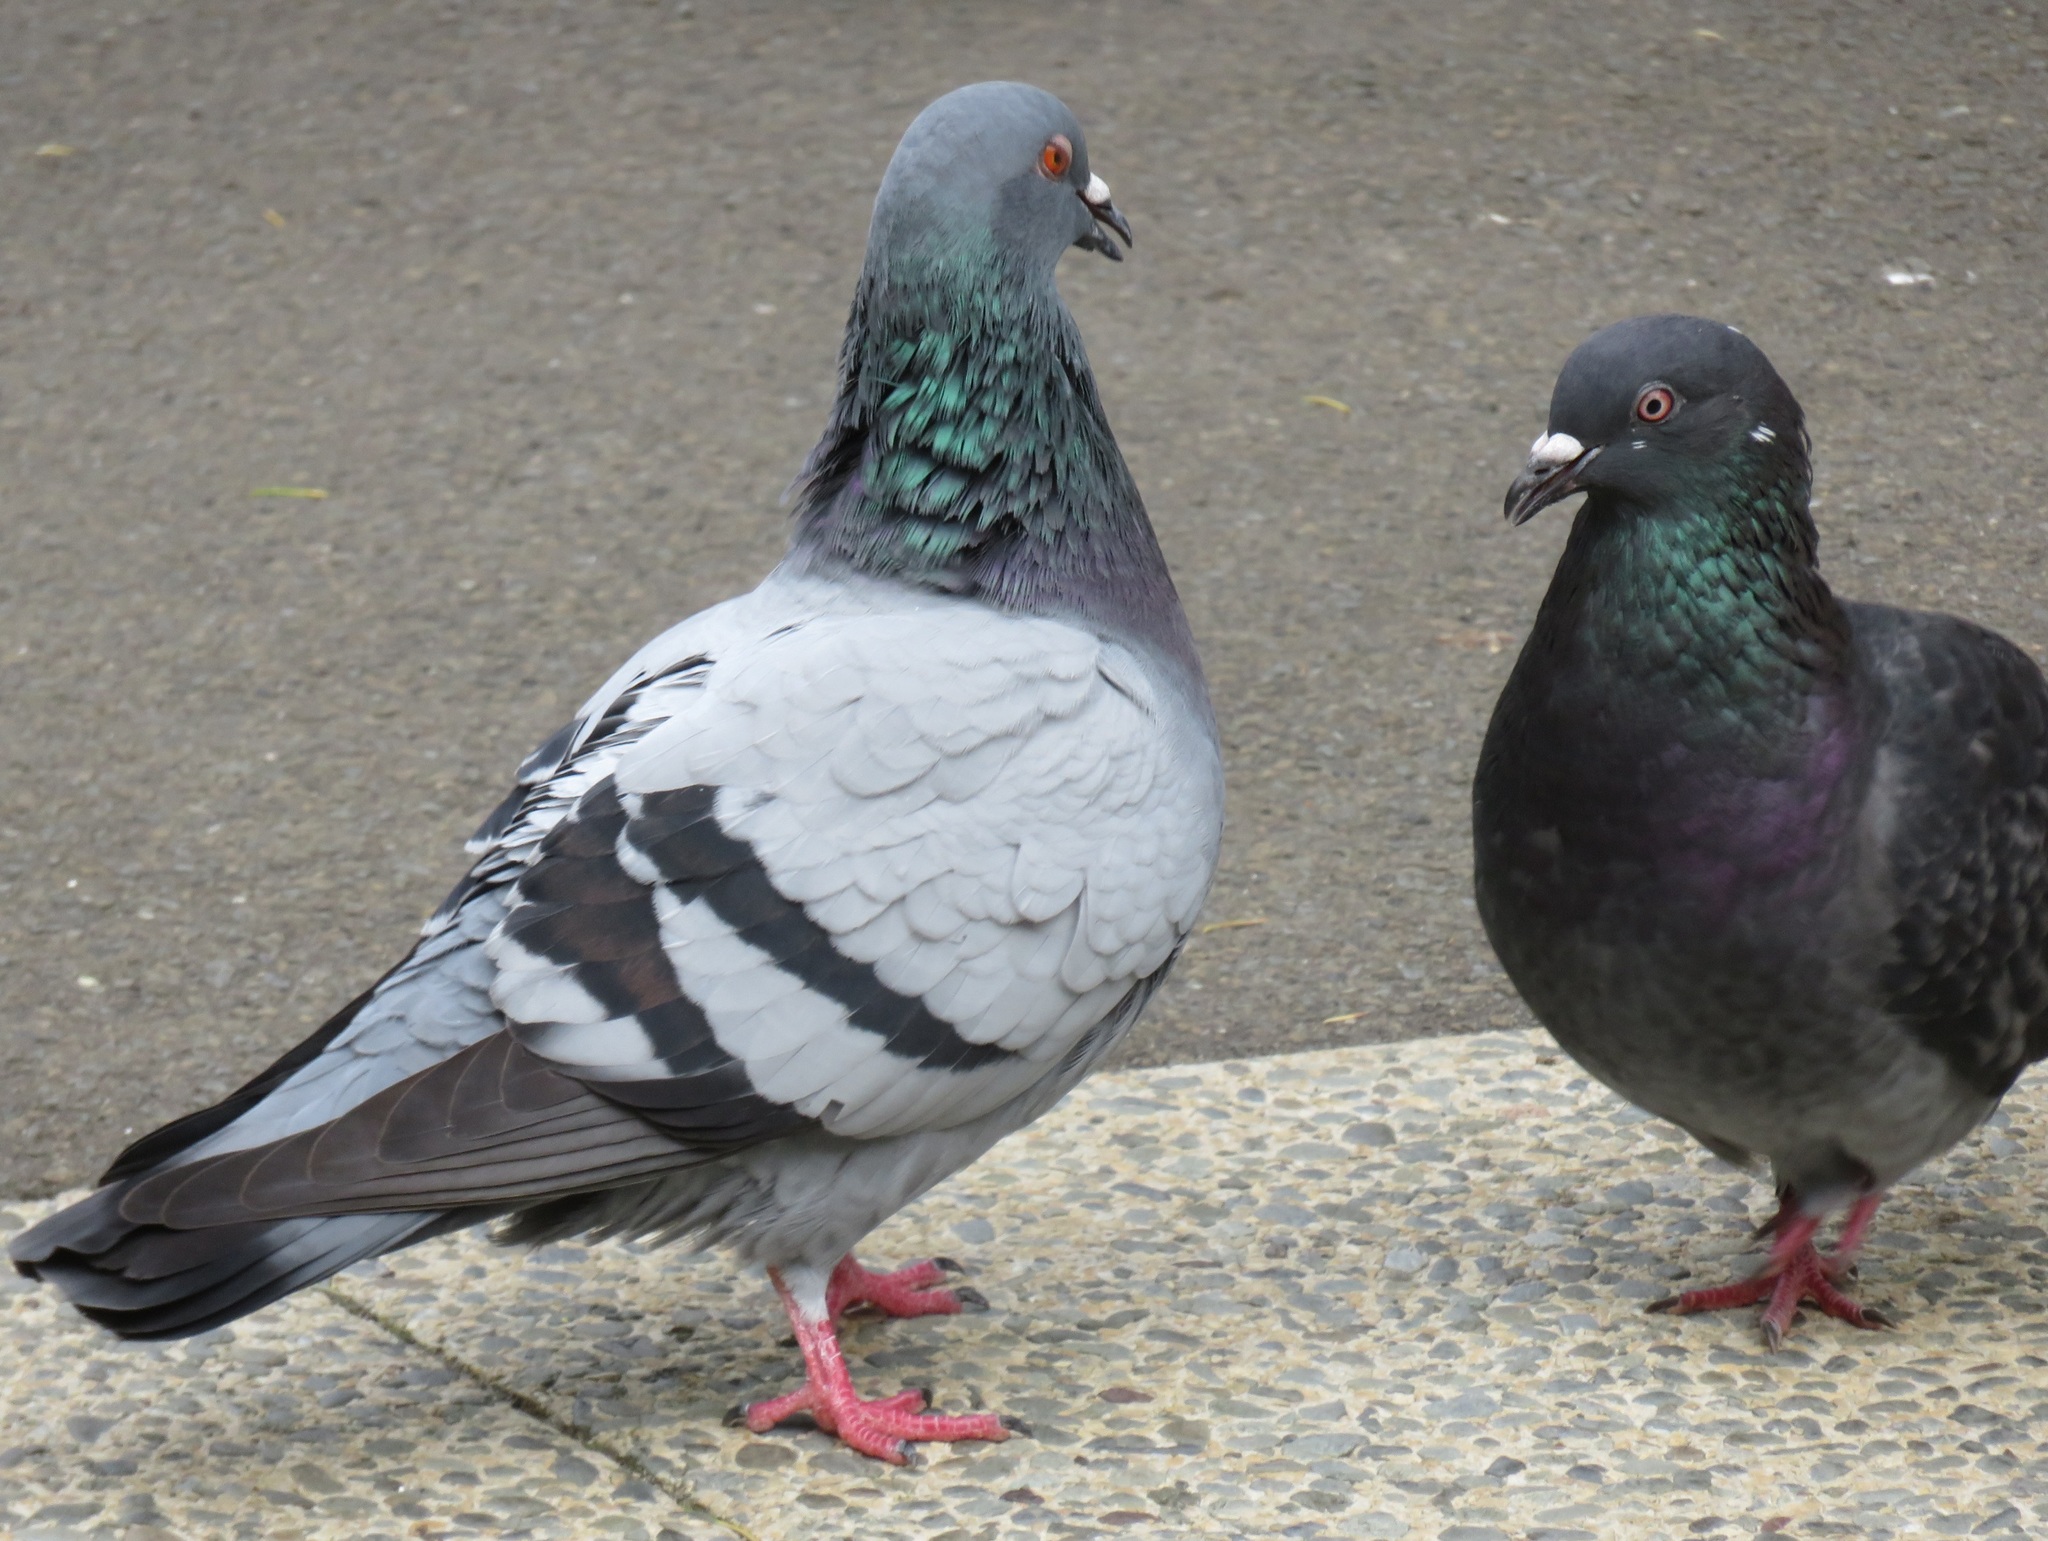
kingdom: Animalia
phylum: Chordata
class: Aves
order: Columbiformes
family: Columbidae
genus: Columba
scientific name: Columba livia
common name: Rock pigeon
